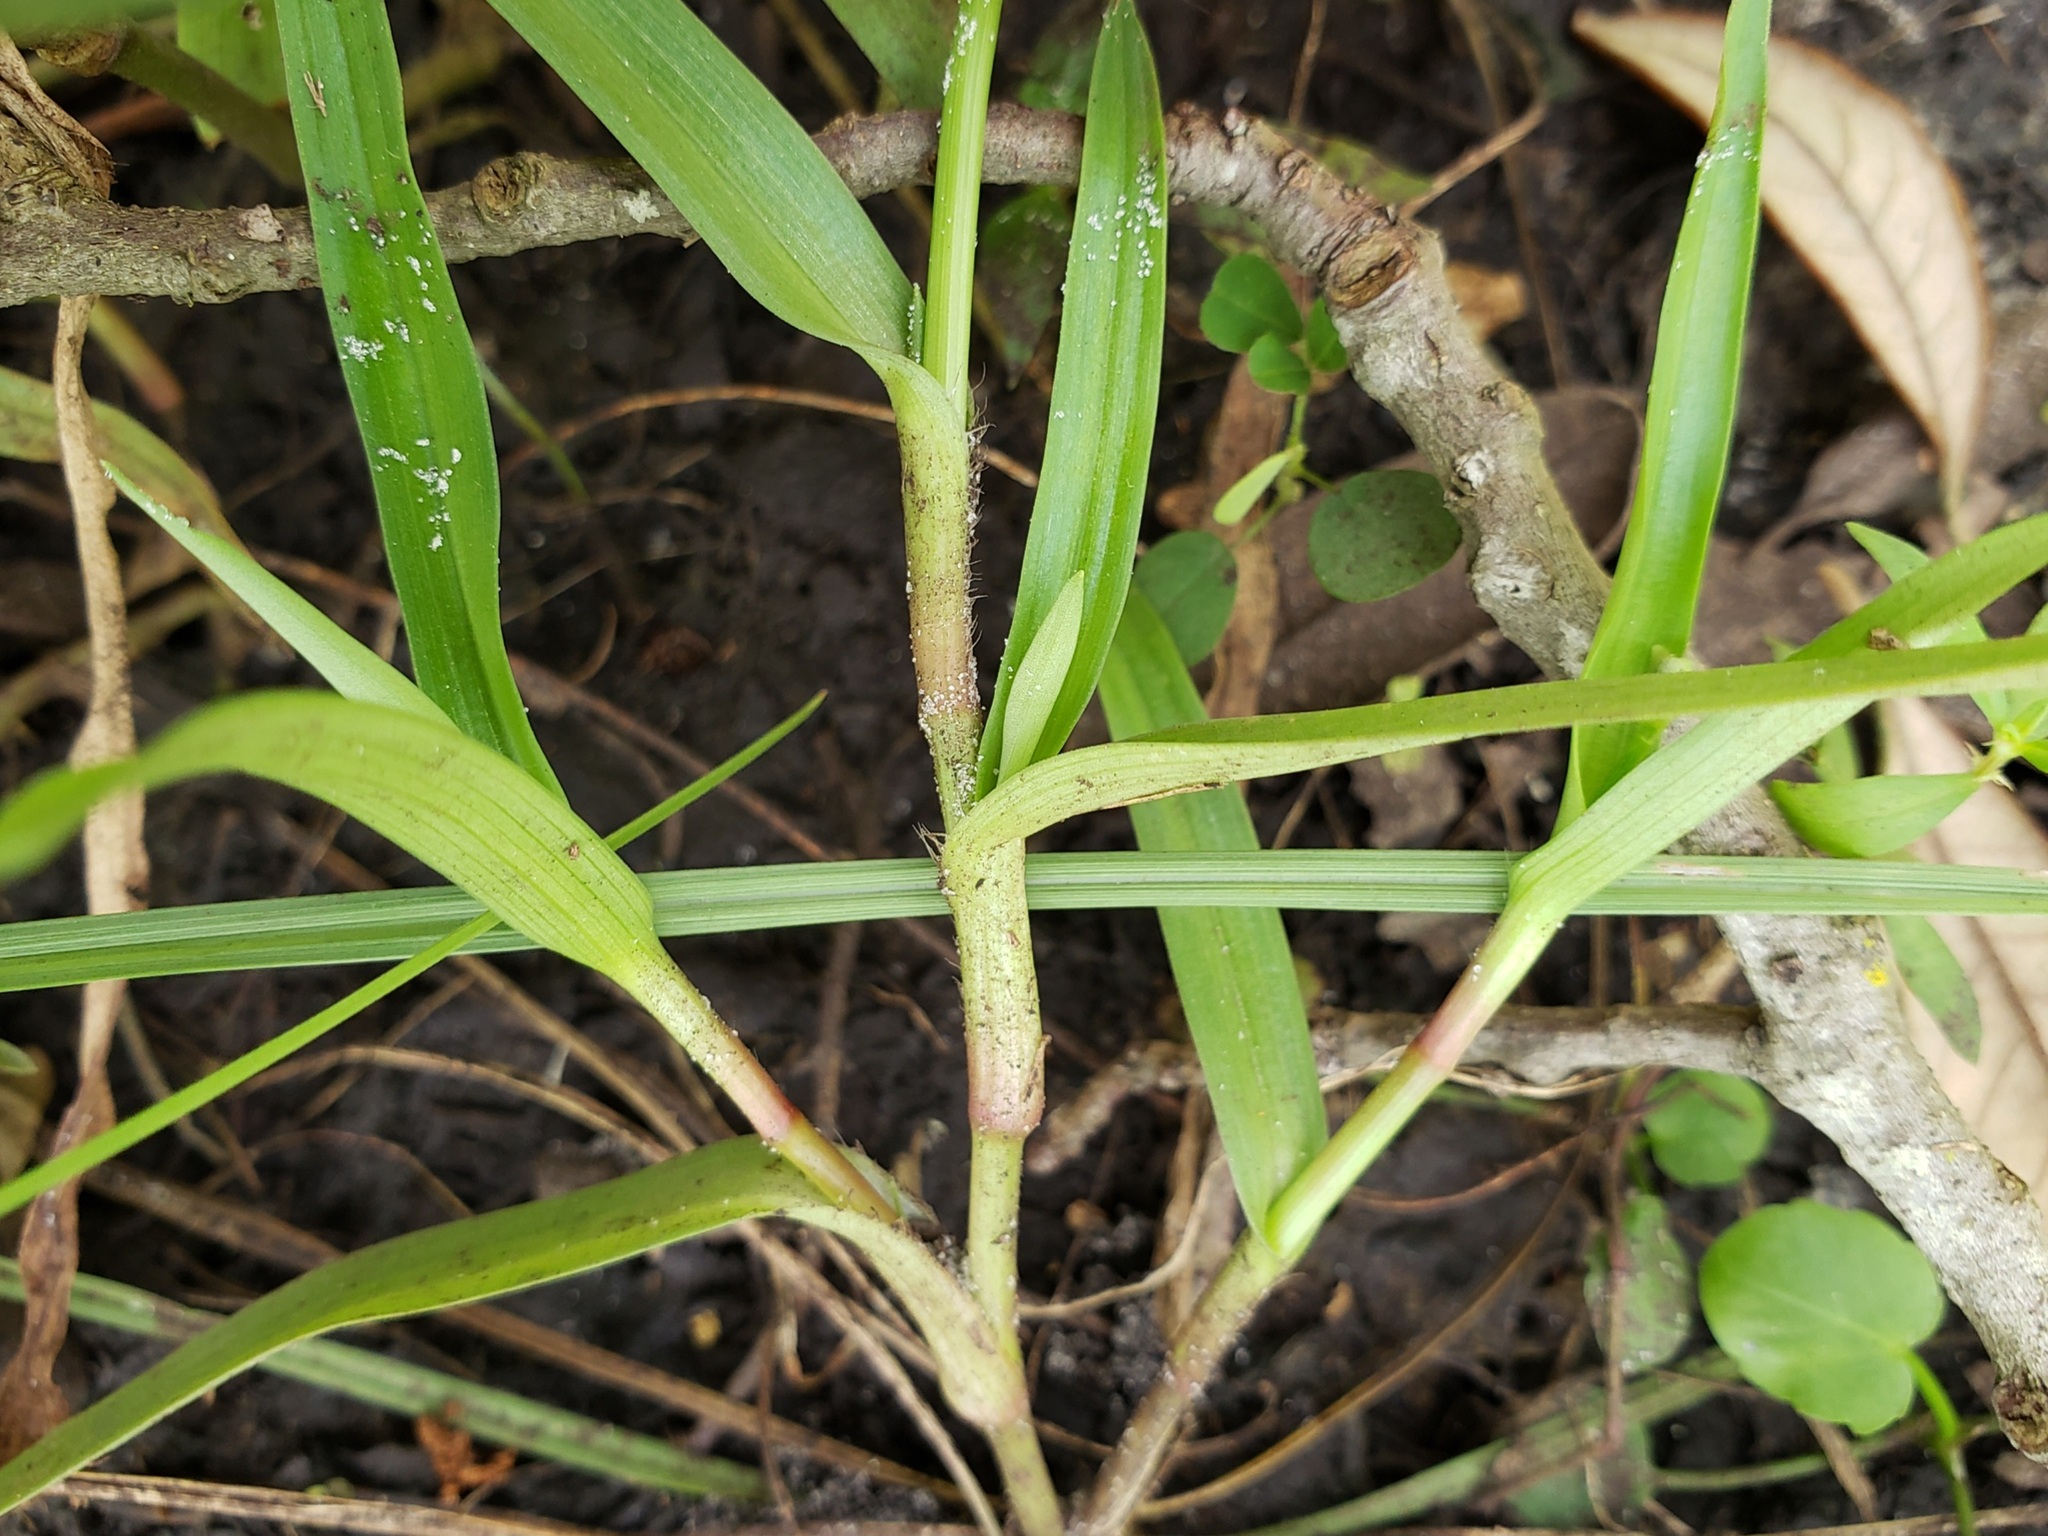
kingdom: Plantae
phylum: Tracheophyta
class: Liliopsida
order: Commelinales
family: Commelinaceae
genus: Murdannia
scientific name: Murdannia nudiflora
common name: Nakedstem dewflower
